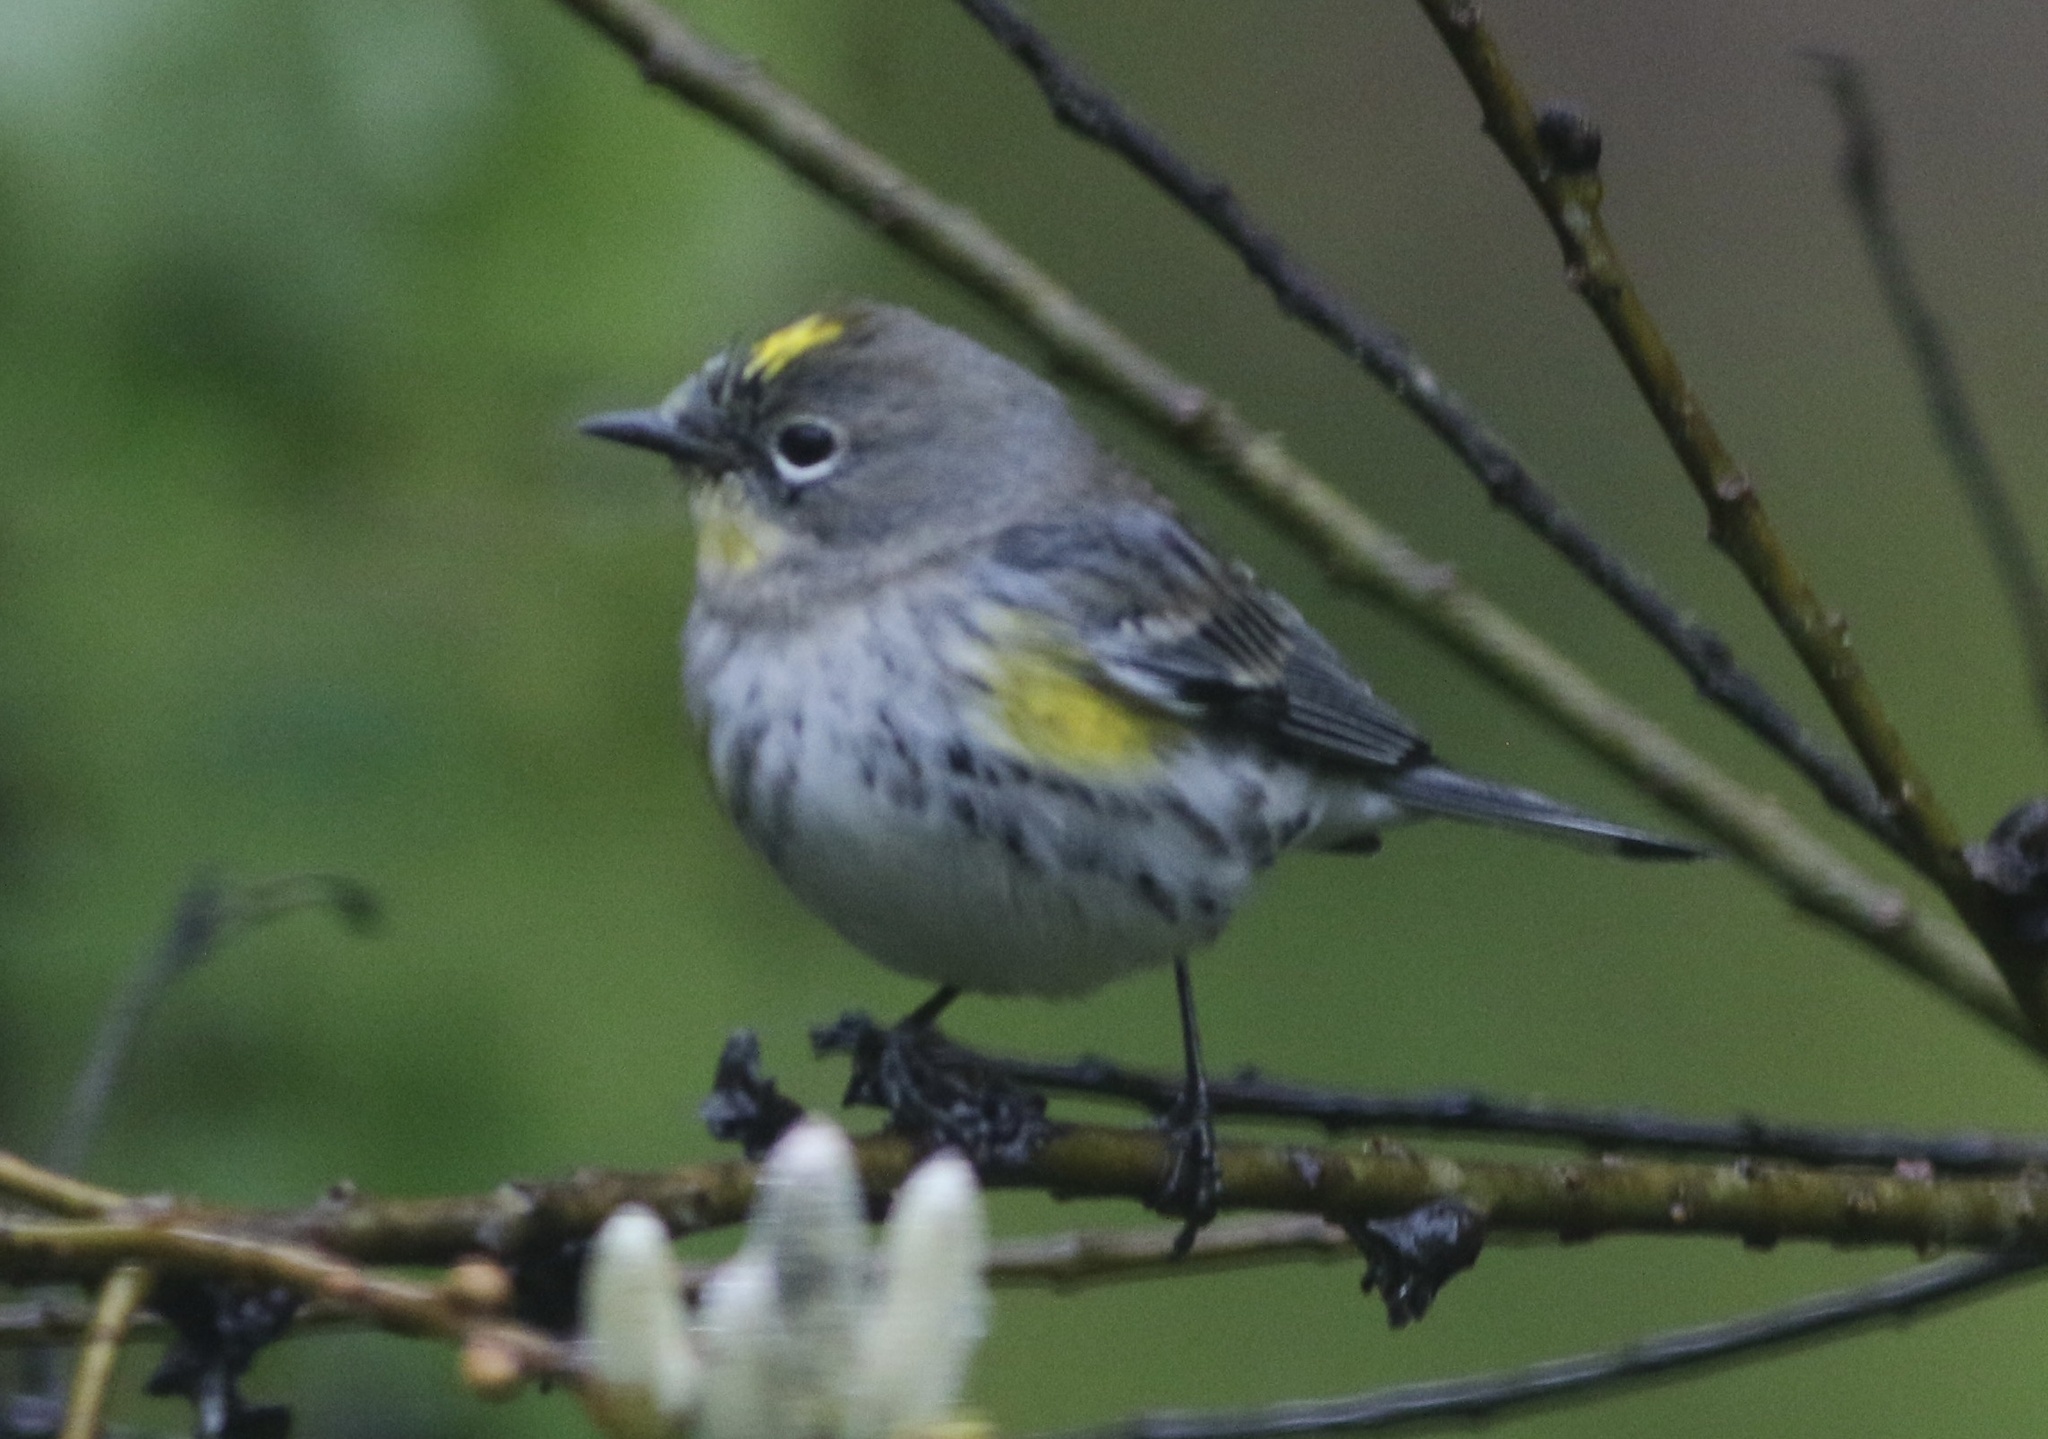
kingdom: Animalia
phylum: Chordata
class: Aves
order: Passeriformes
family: Parulidae
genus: Setophaga
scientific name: Setophaga coronata
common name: Myrtle warbler
